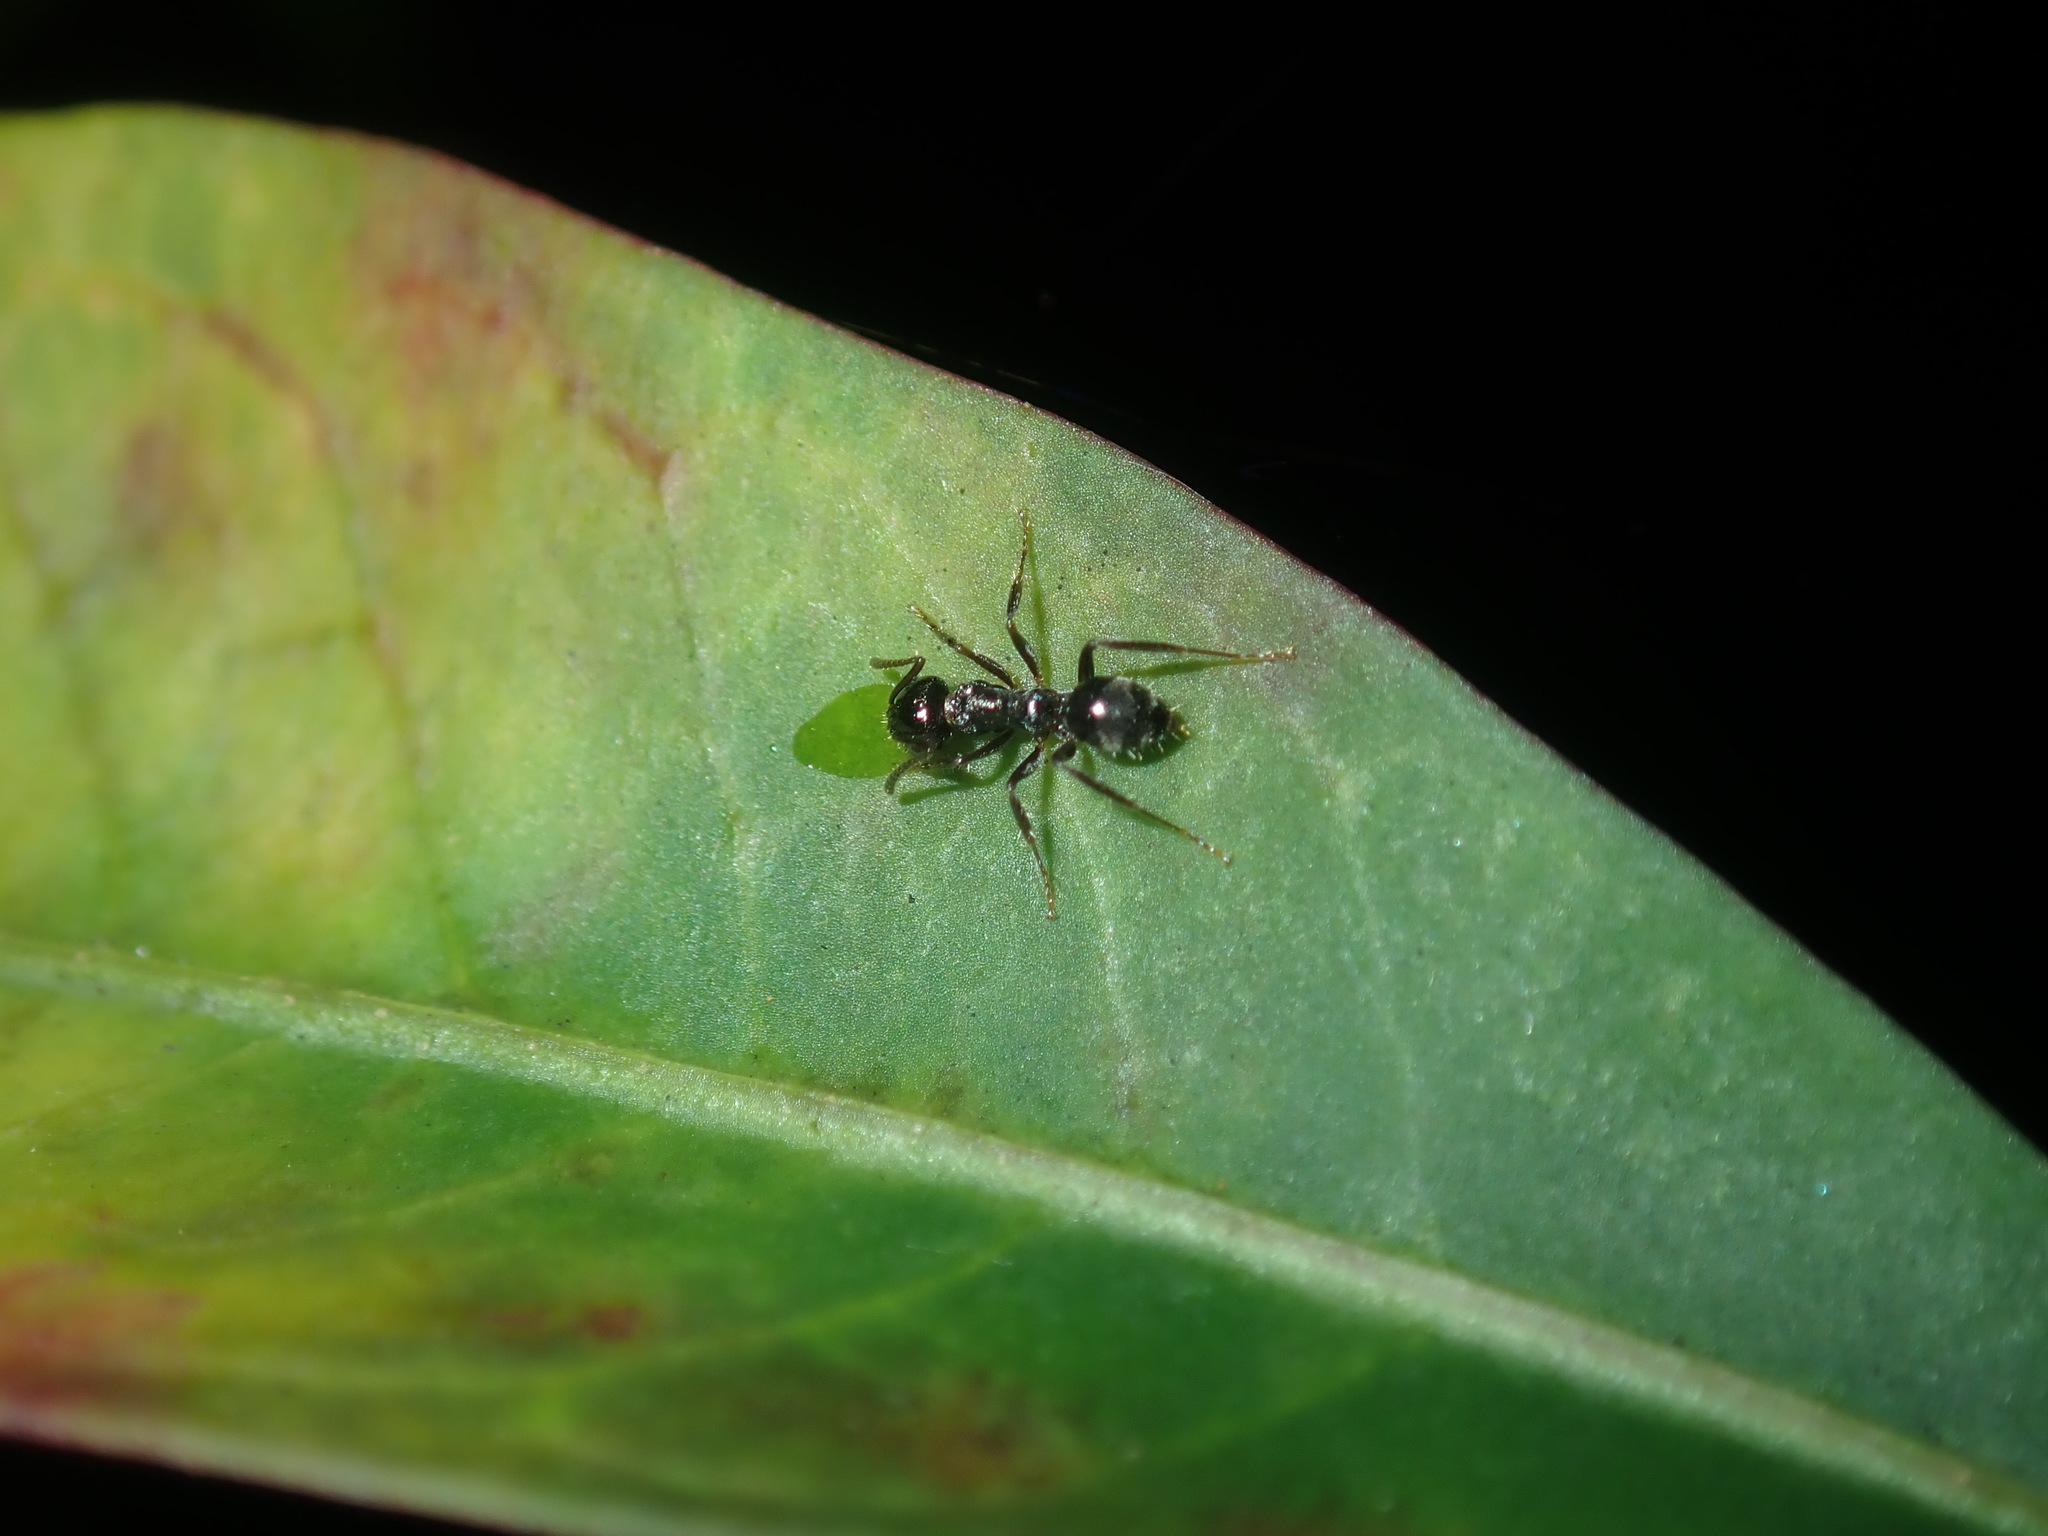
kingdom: Animalia
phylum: Arthropoda
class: Insecta
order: Hymenoptera
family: Formicidae
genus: Notoncus
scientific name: Notoncus capitatus
